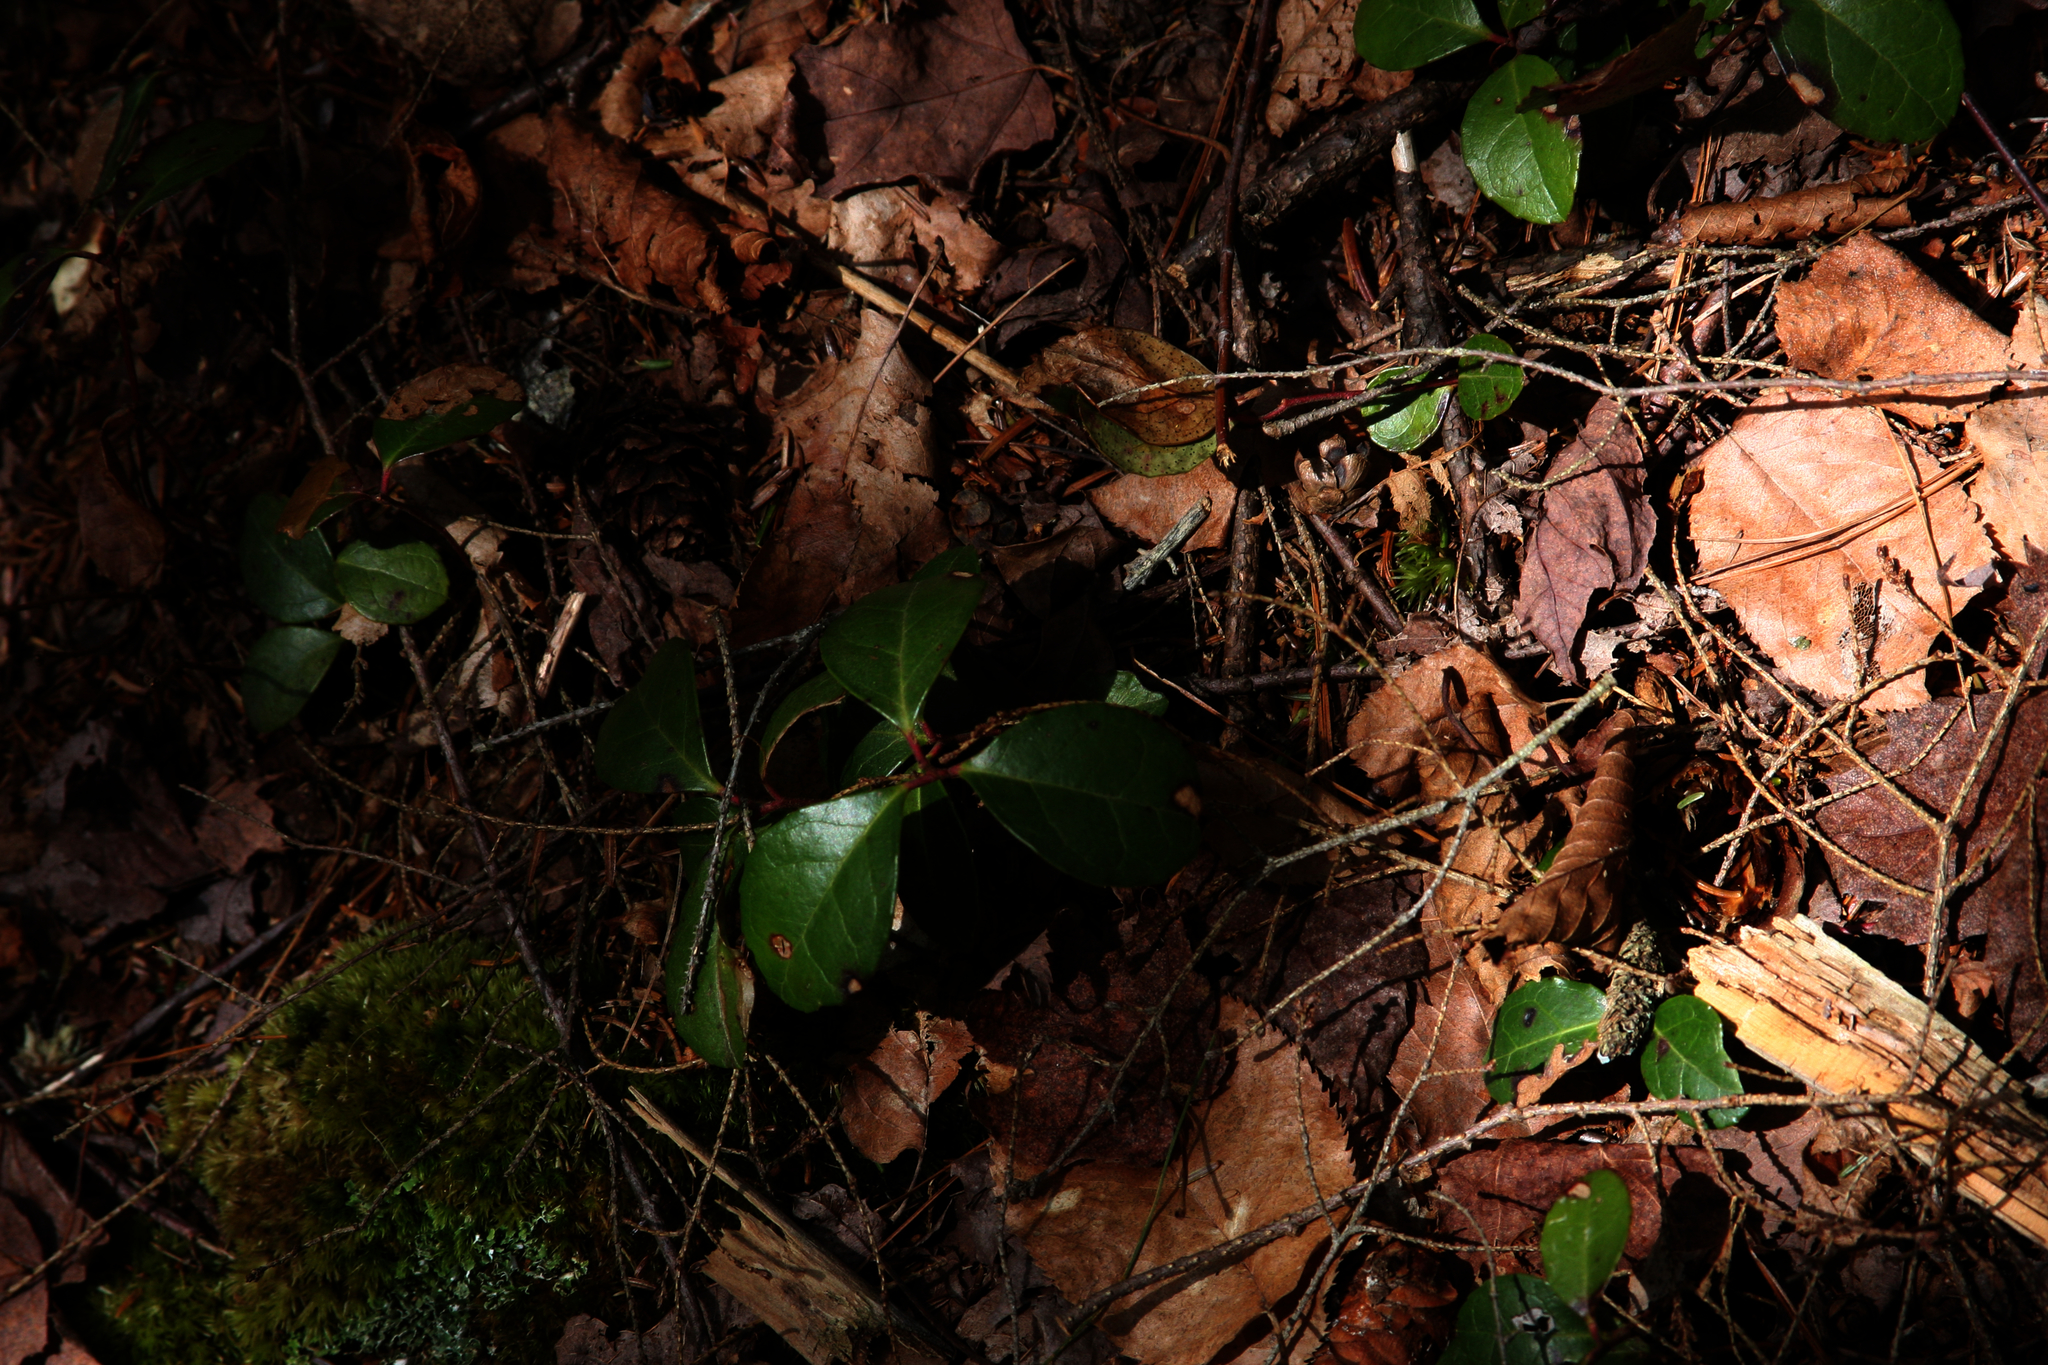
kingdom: Plantae
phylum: Tracheophyta
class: Magnoliopsida
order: Ericales
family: Ericaceae
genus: Gaultheria
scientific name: Gaultheria procumbens
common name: Checkerberry
